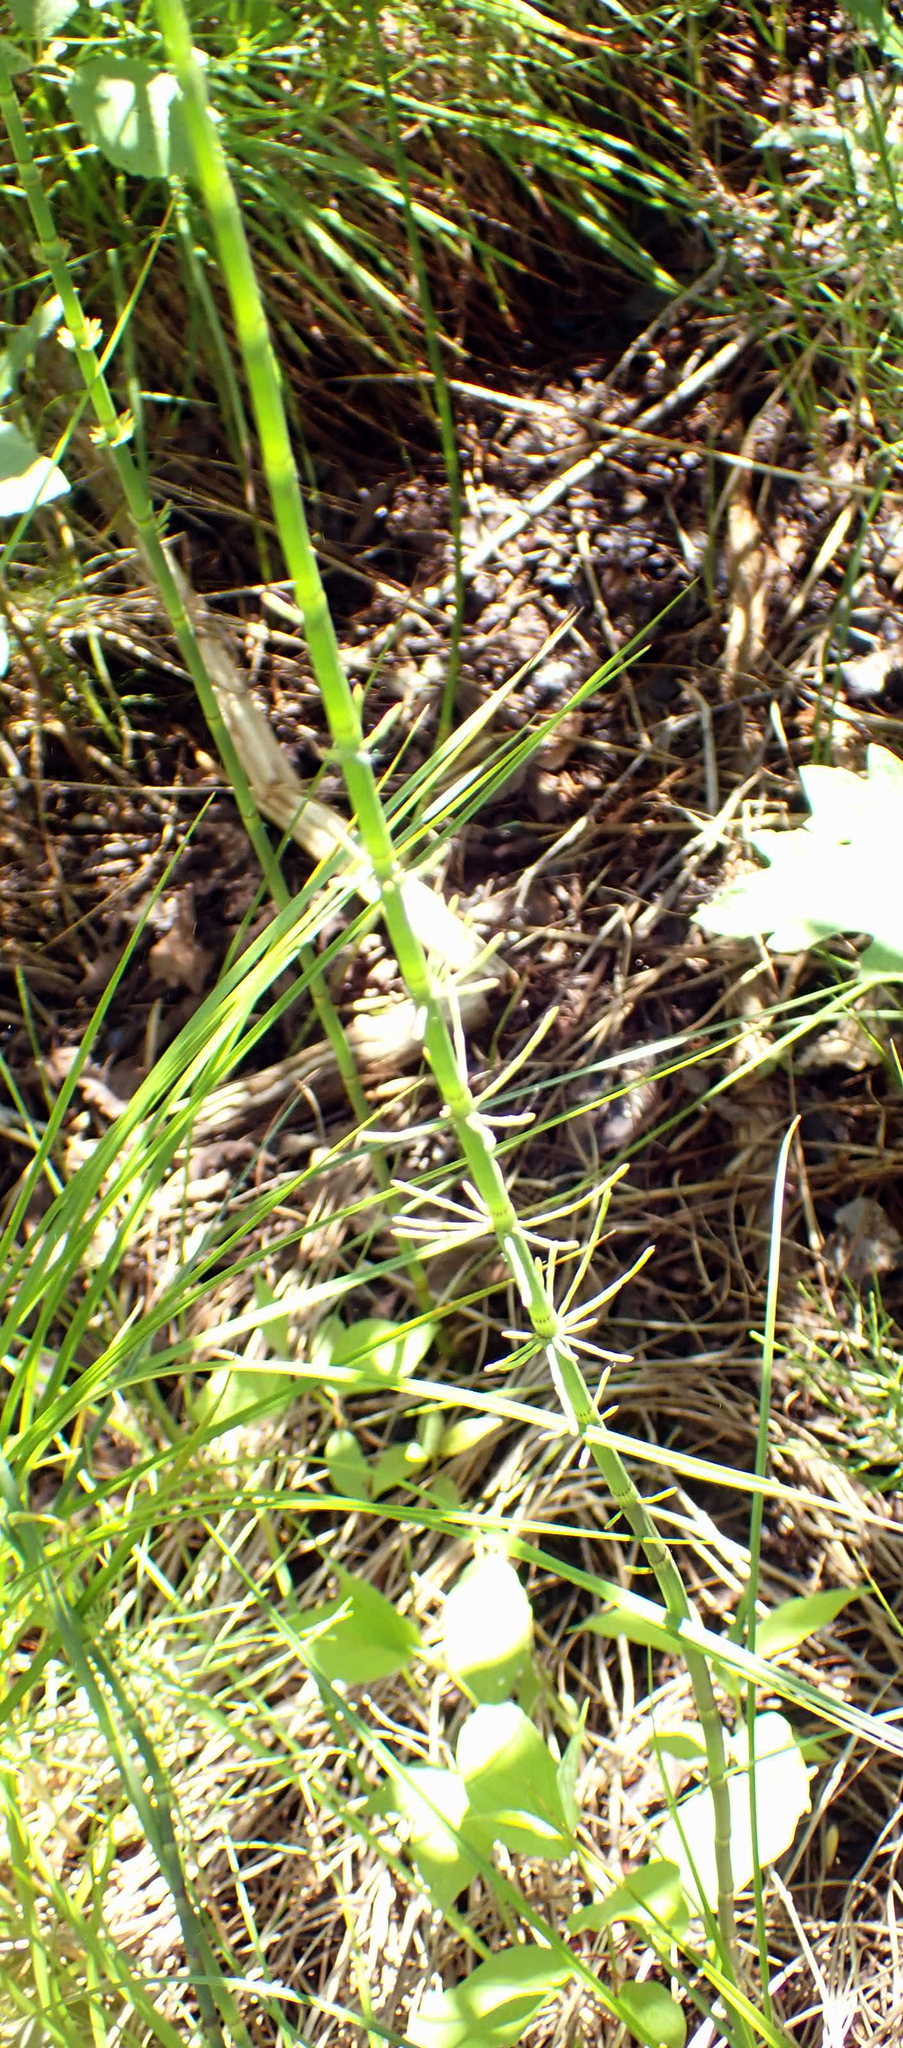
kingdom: Plantae
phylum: Tracheophyta
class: Polypodiopsida
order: Equisetales
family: Equisetaceae
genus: Equisetum
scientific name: Equisetum fluviatile
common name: Water horsetail
